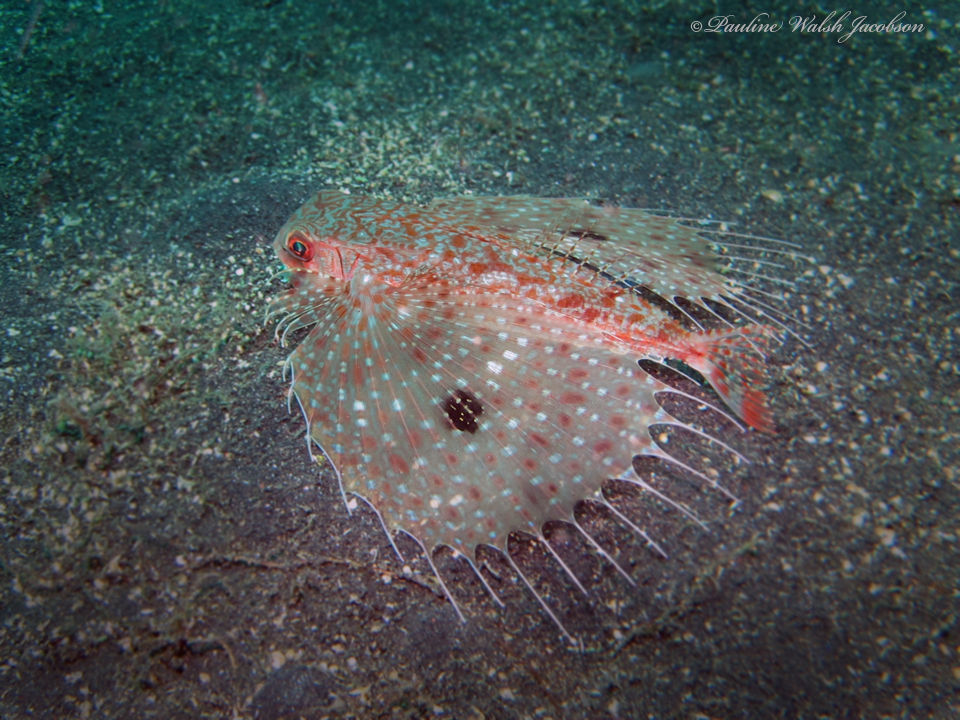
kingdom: Animalia
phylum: Chordata
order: Scorpaeniformes
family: Dactylopteridae
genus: Dactyloptena
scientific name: Dactyloptena orientalis
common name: Flying gurnard
